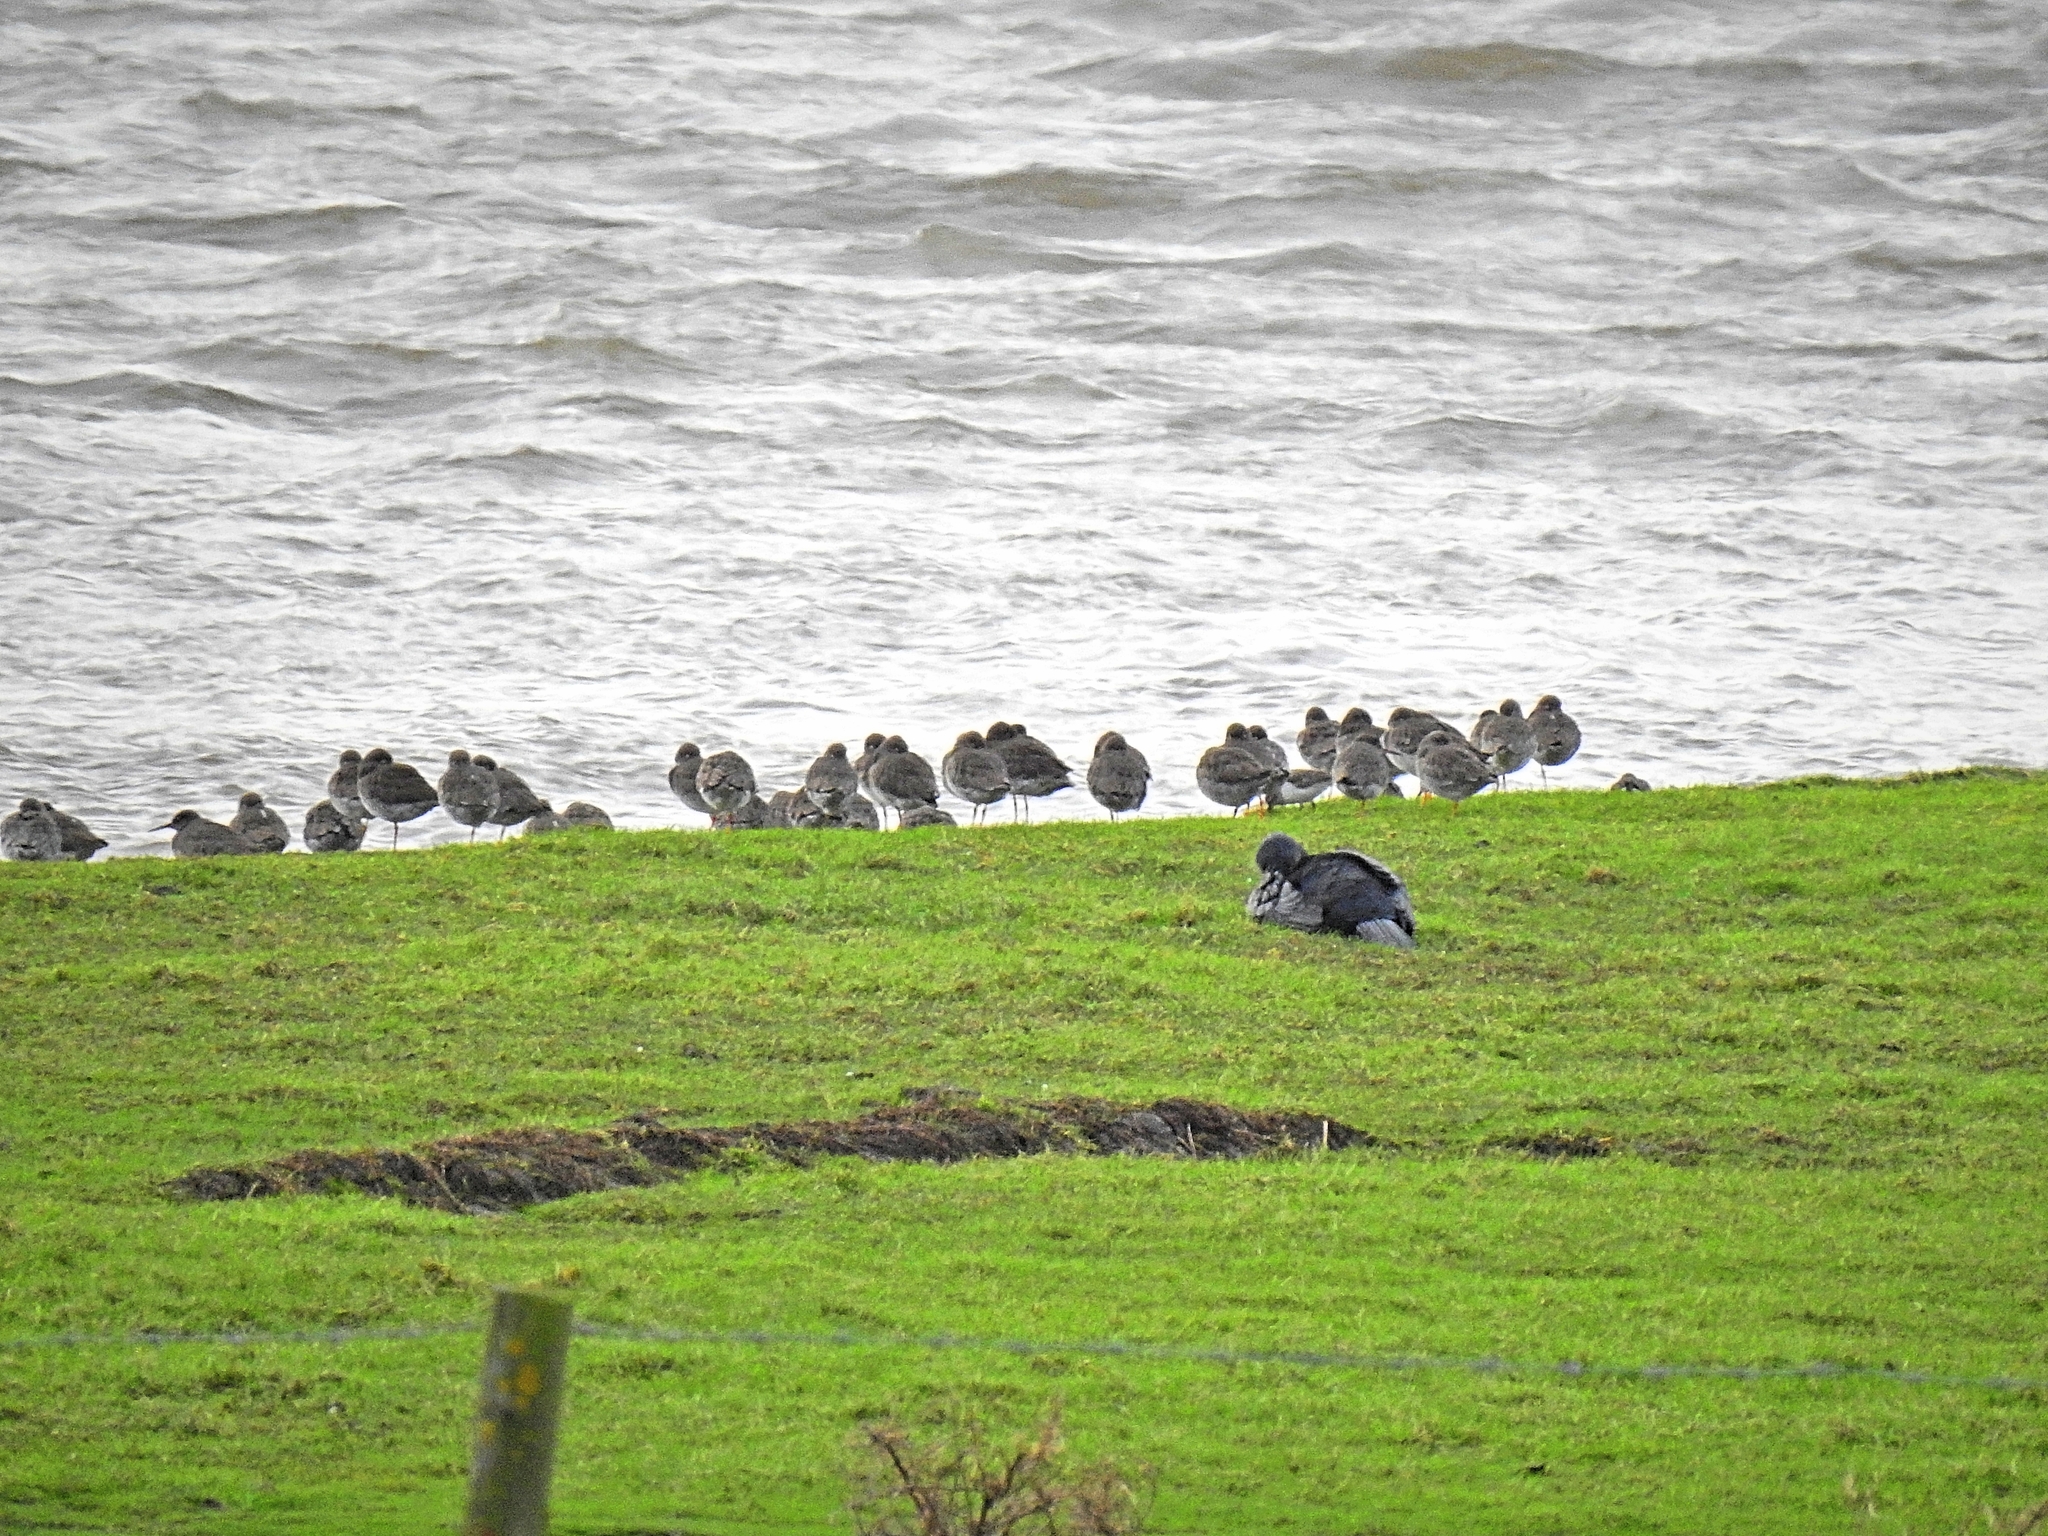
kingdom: Animalia
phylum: Chordata
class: Aves
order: Charadriiformes
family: Scolopacidae
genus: Calidris
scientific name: Calidris alpina
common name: Dunlin
